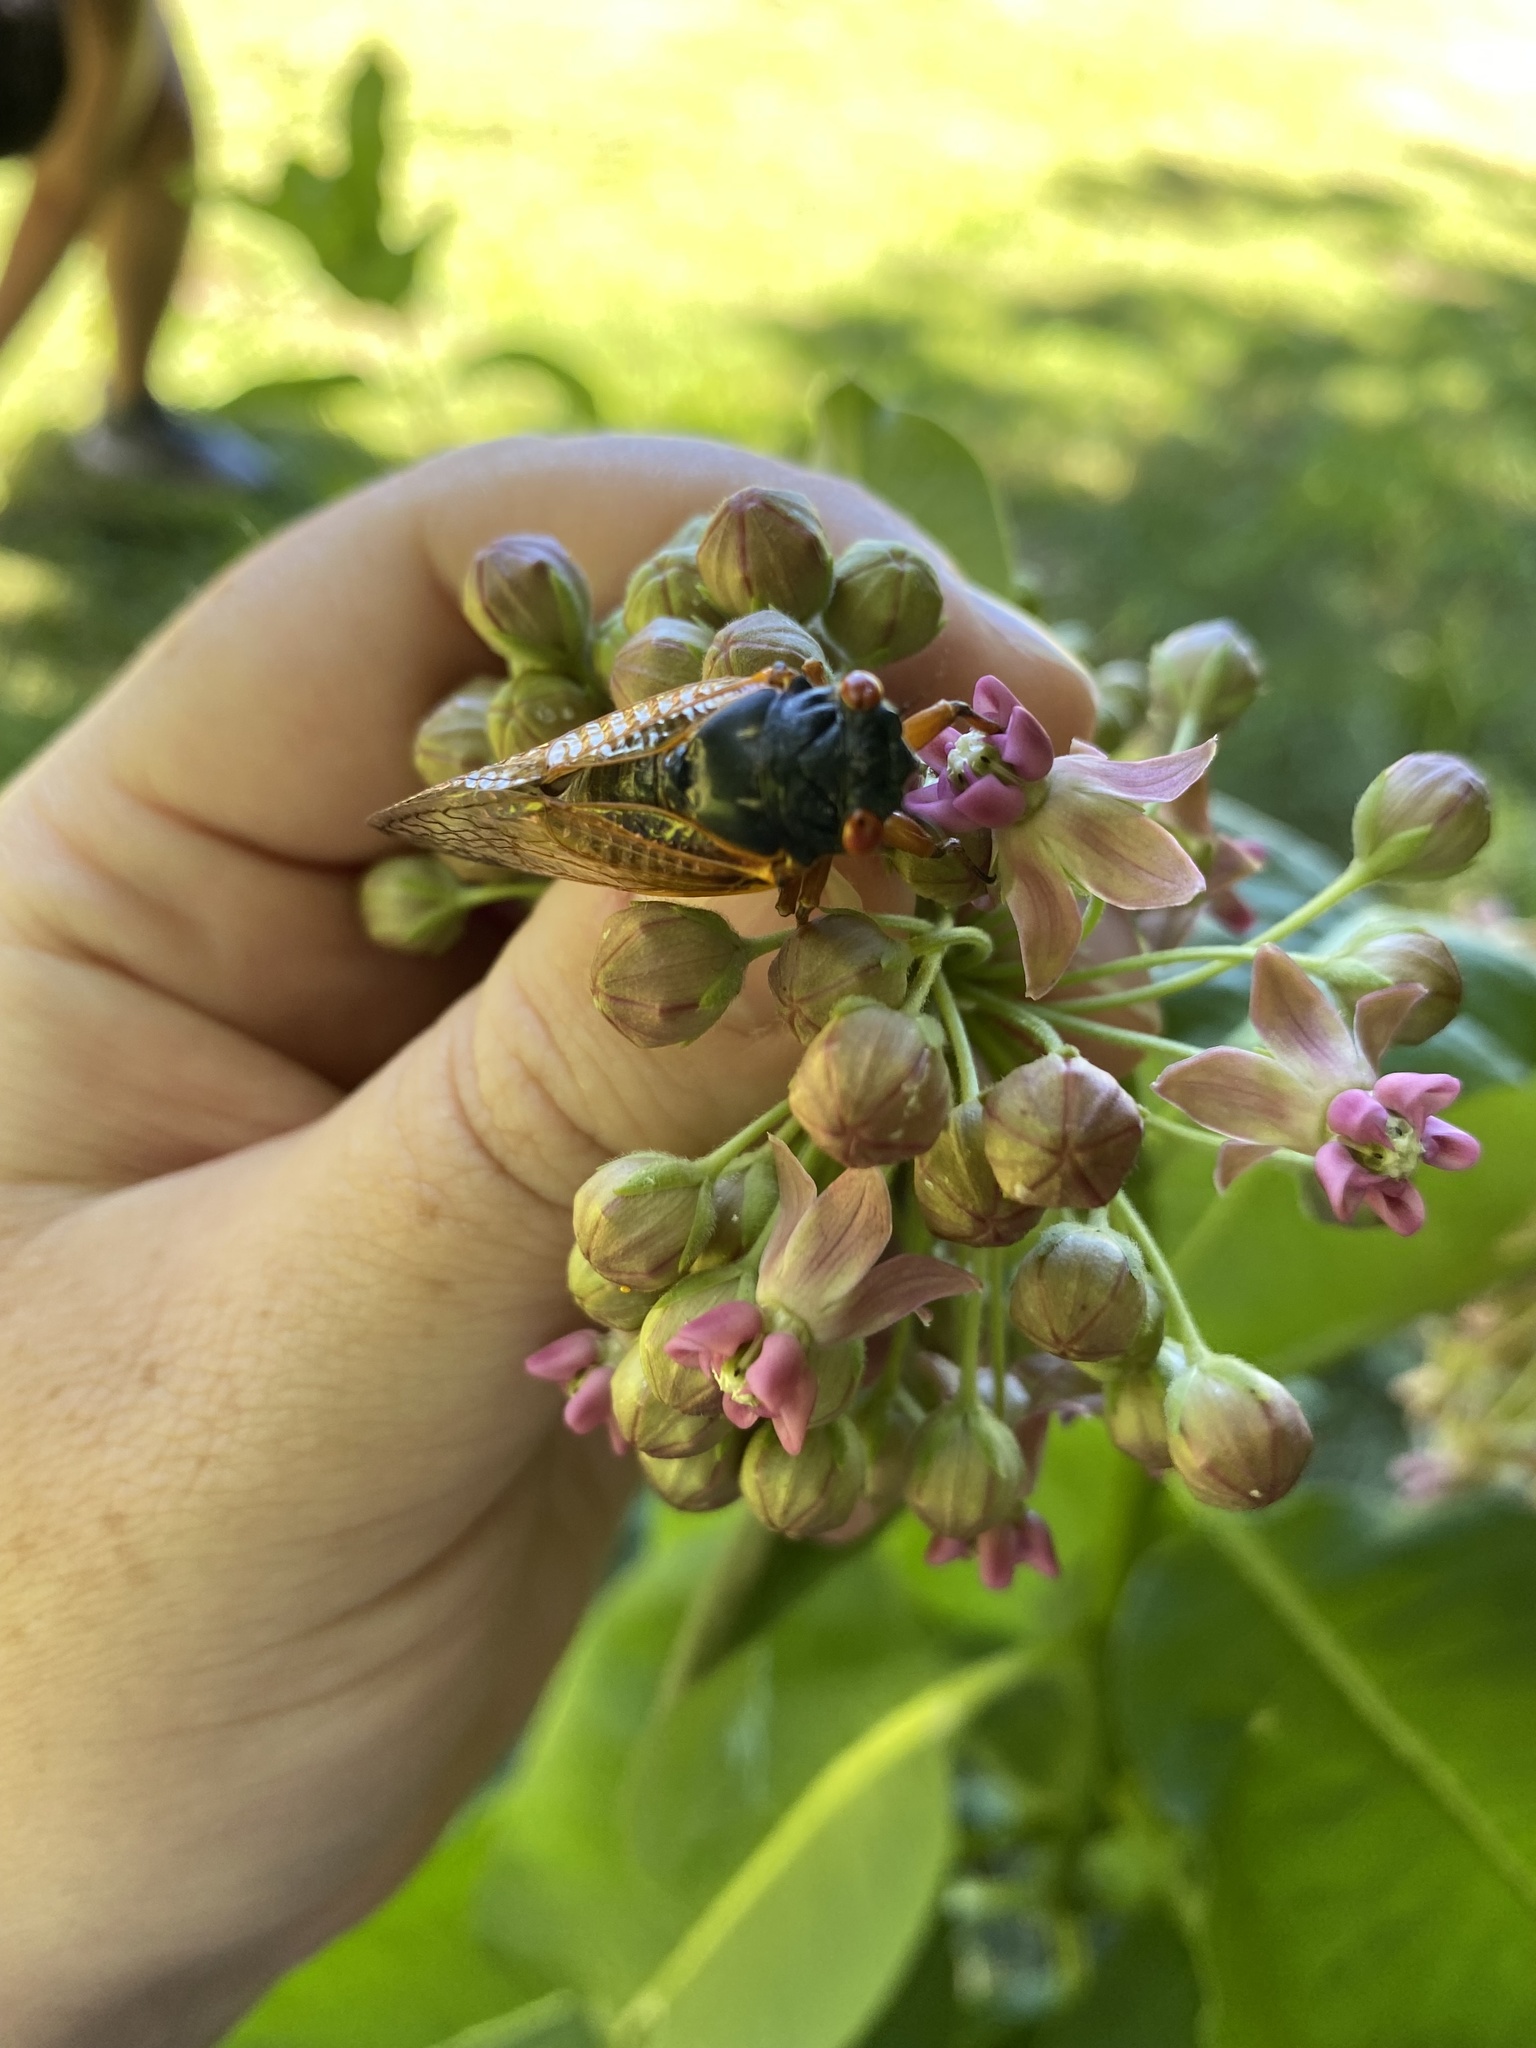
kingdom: Animalia
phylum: Arthropoda
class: Insecta
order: Hemiptera
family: Cicadidae
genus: Magicicada
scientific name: Magicicada
